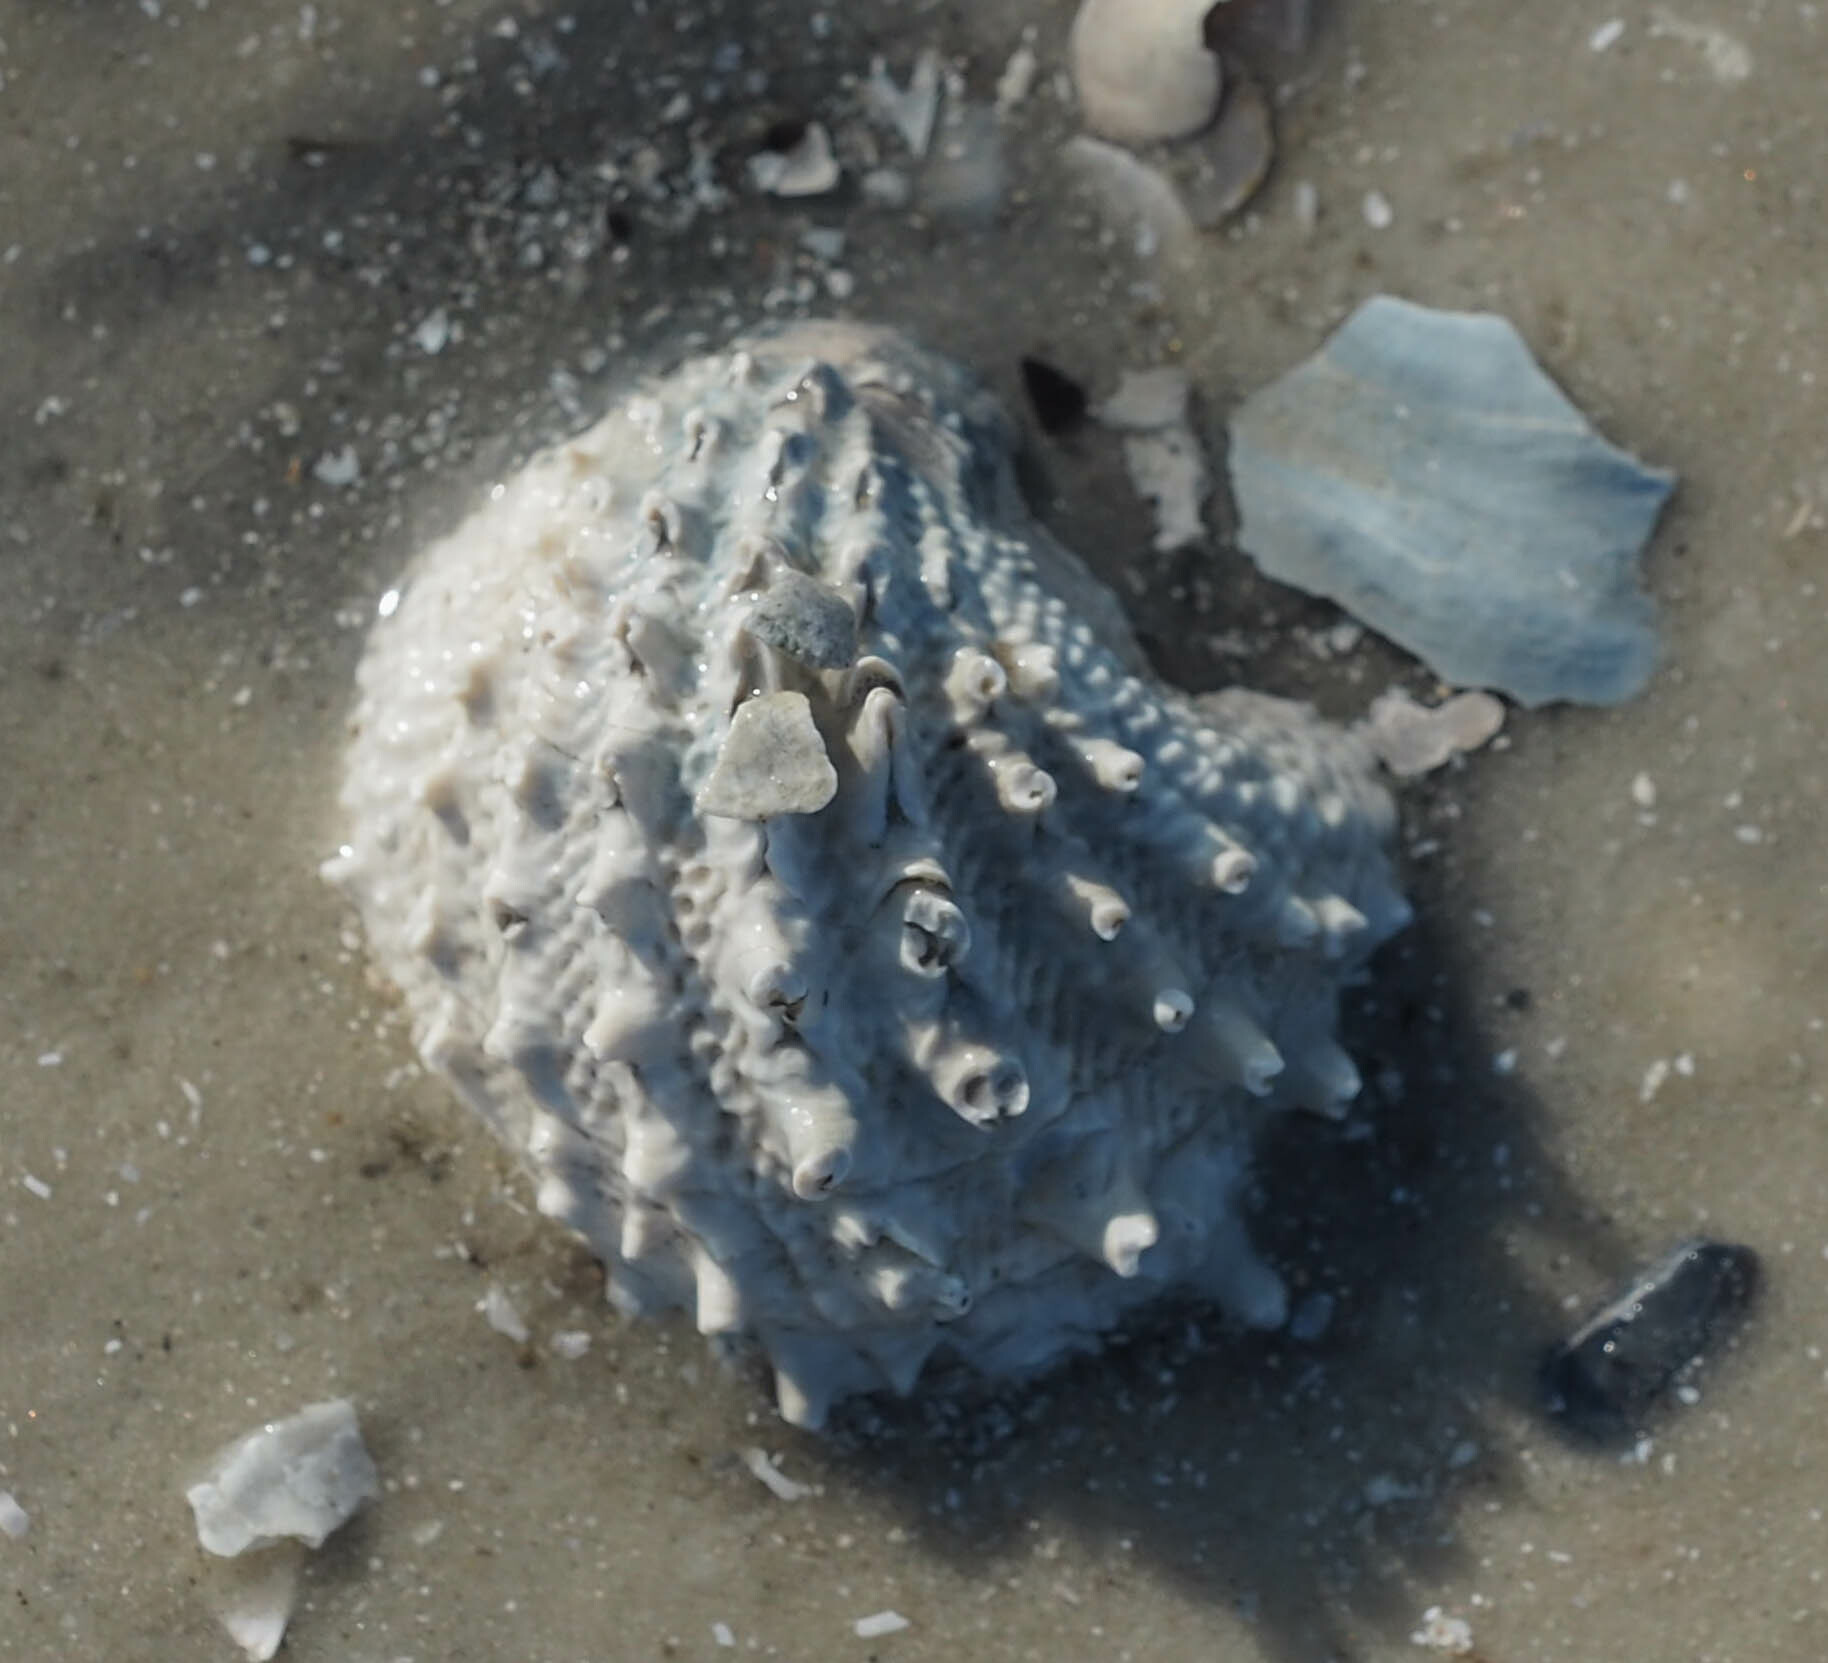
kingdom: Animalia
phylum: Mollusca
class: Bivalvia
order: Venerida
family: Chamidae
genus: Arcinella
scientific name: Arcinella cornuta
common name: Florida spiny jewel box
